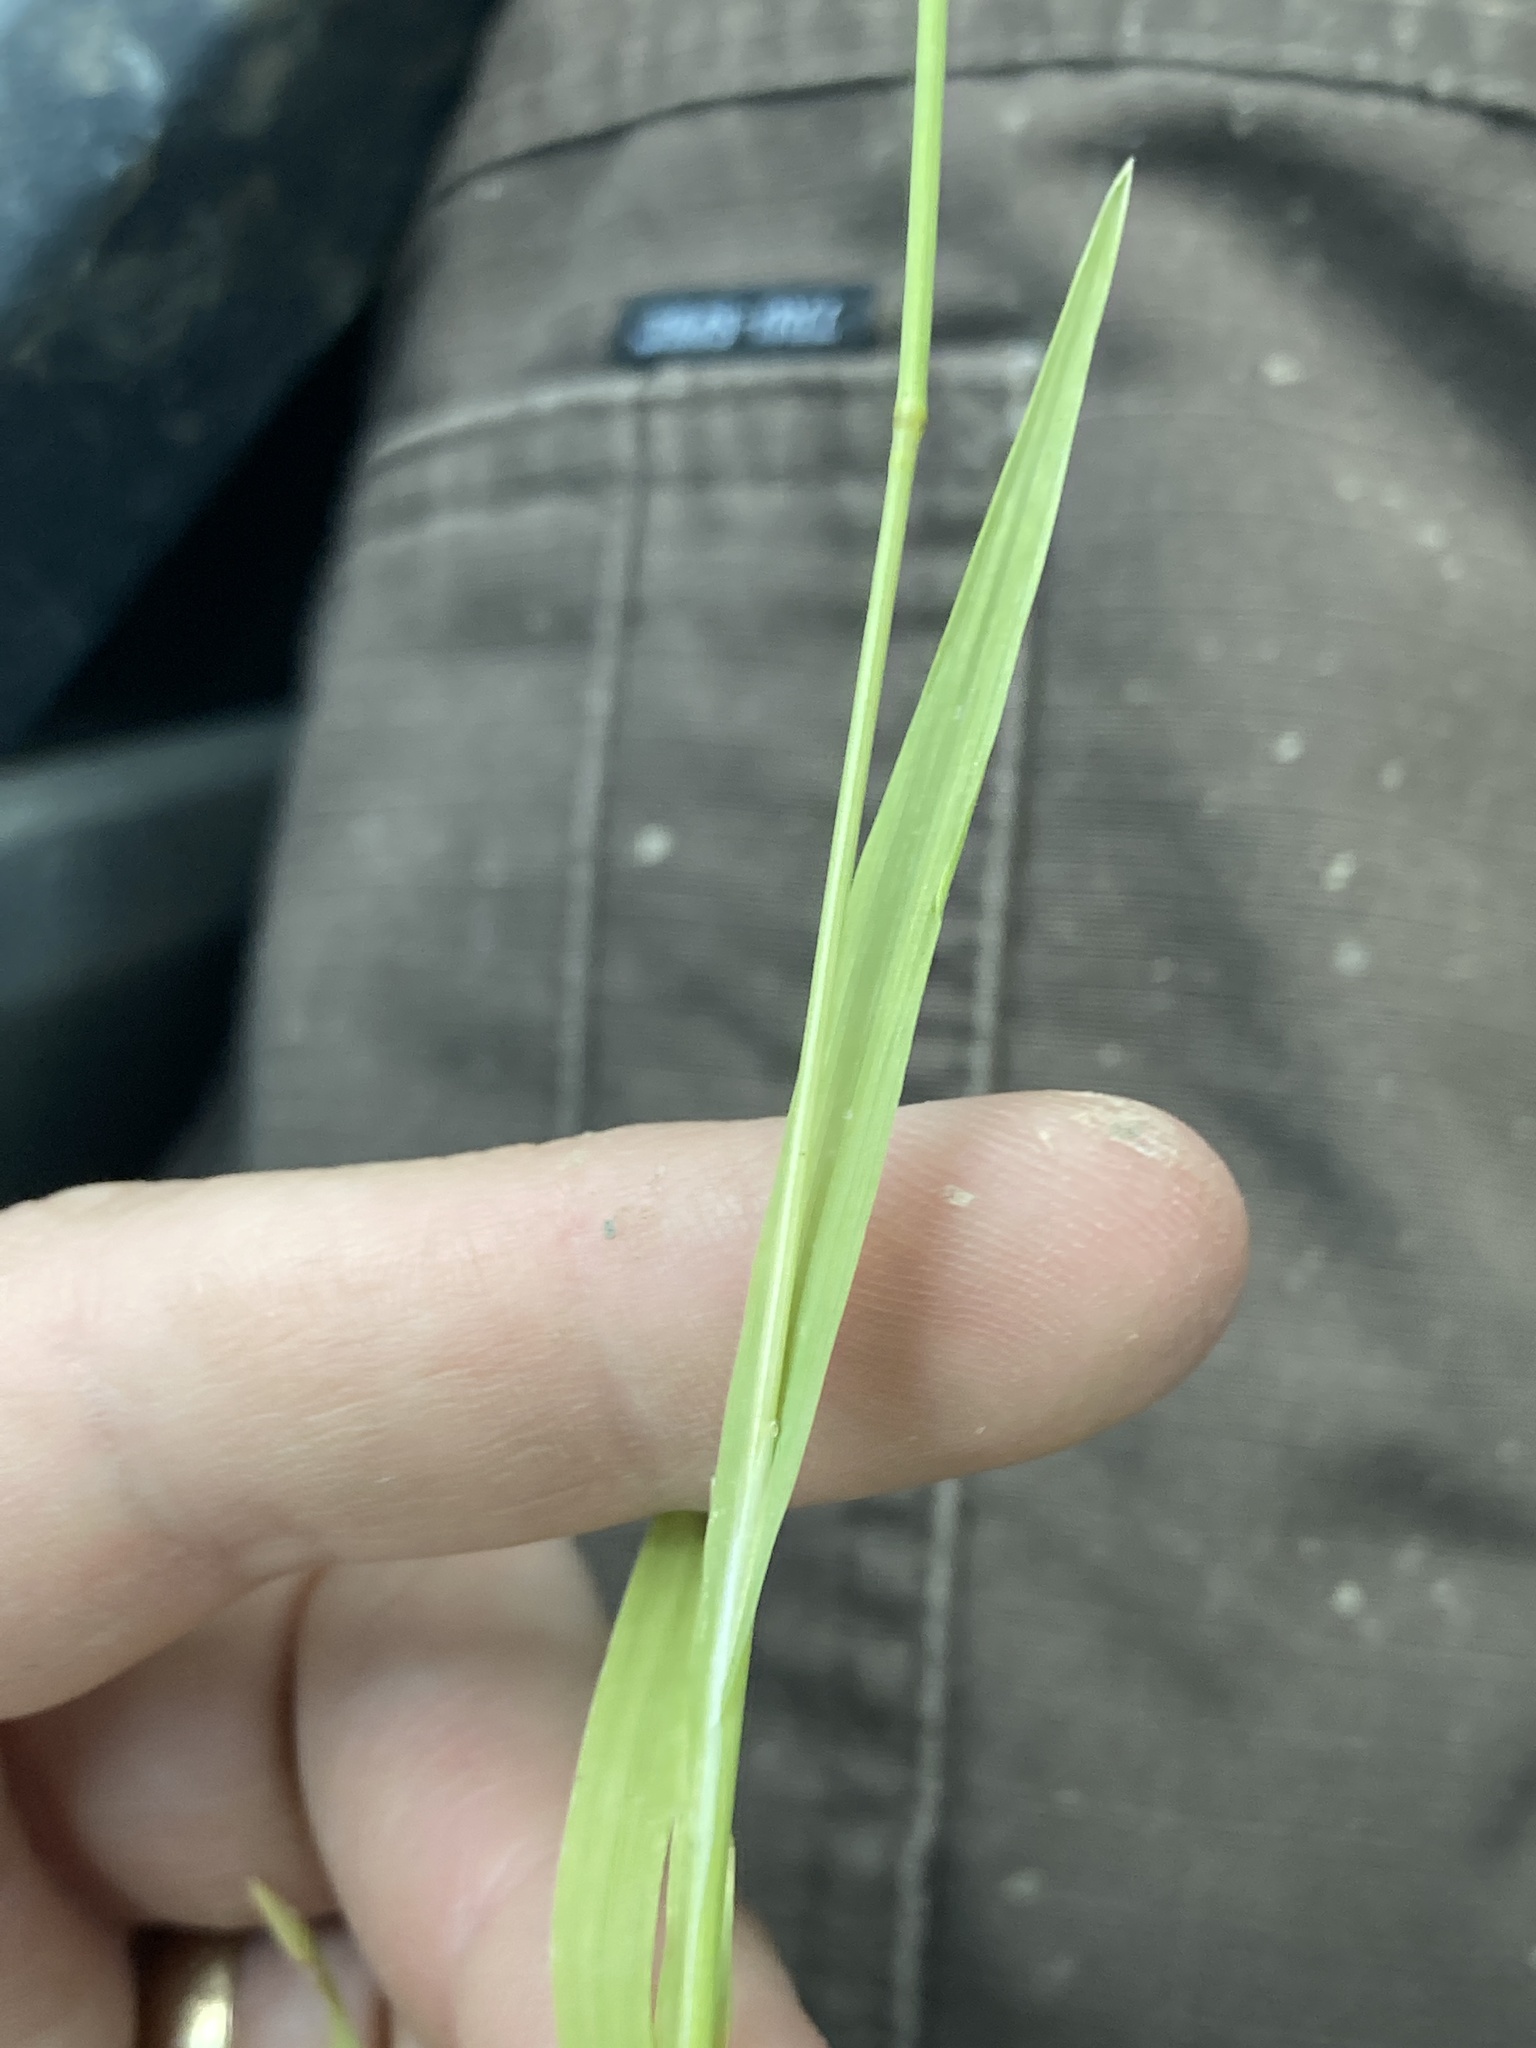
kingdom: Plantae
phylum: Tracheophyta
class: Liliopsida
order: Poales
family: Poaceae
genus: Briza
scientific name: Briza minor
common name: Lesser quaking-grass
